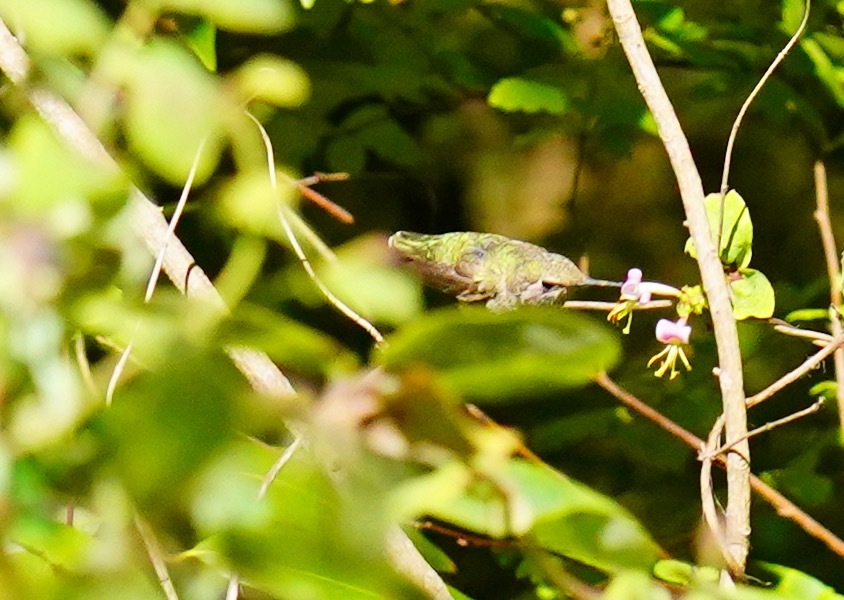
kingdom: Animalia
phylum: Chordata
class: Aves
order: Apodiformes
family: Trochilidae
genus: Calypte
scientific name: Calypte anna
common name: Anna's hummingbird
